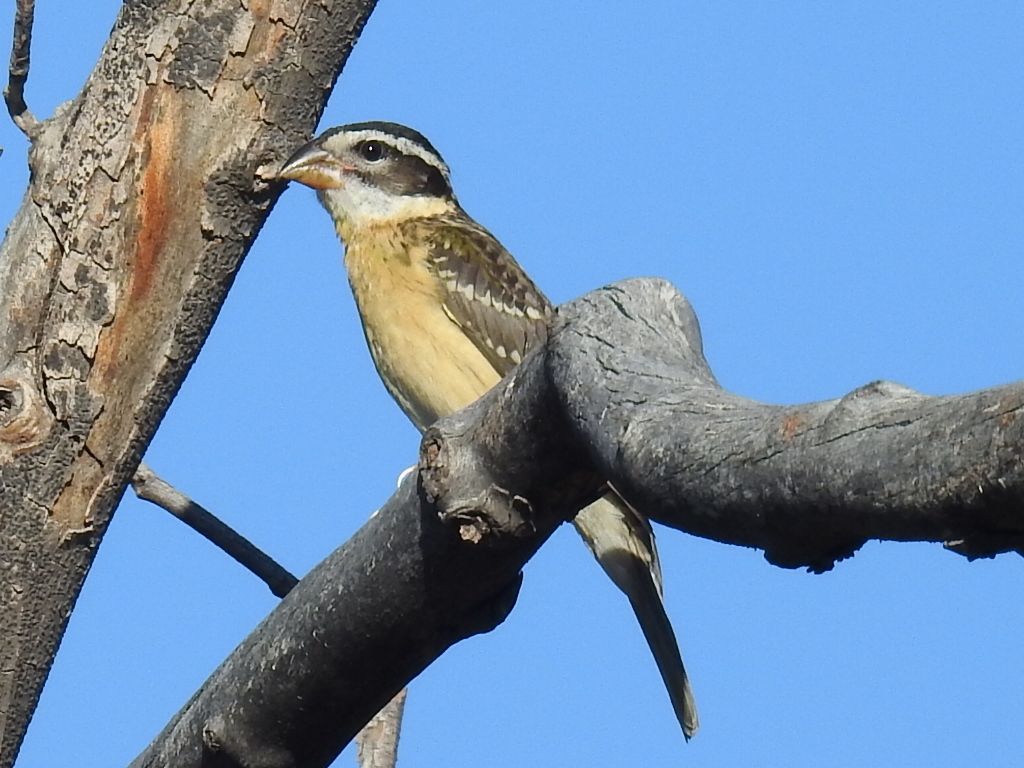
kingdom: Animalia
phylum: Chordata
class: Aves
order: Passeriformes
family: Cardinalidae
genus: Pheucticus
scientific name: Pheucticus melanocephalus
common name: Black-headed grosbeak
